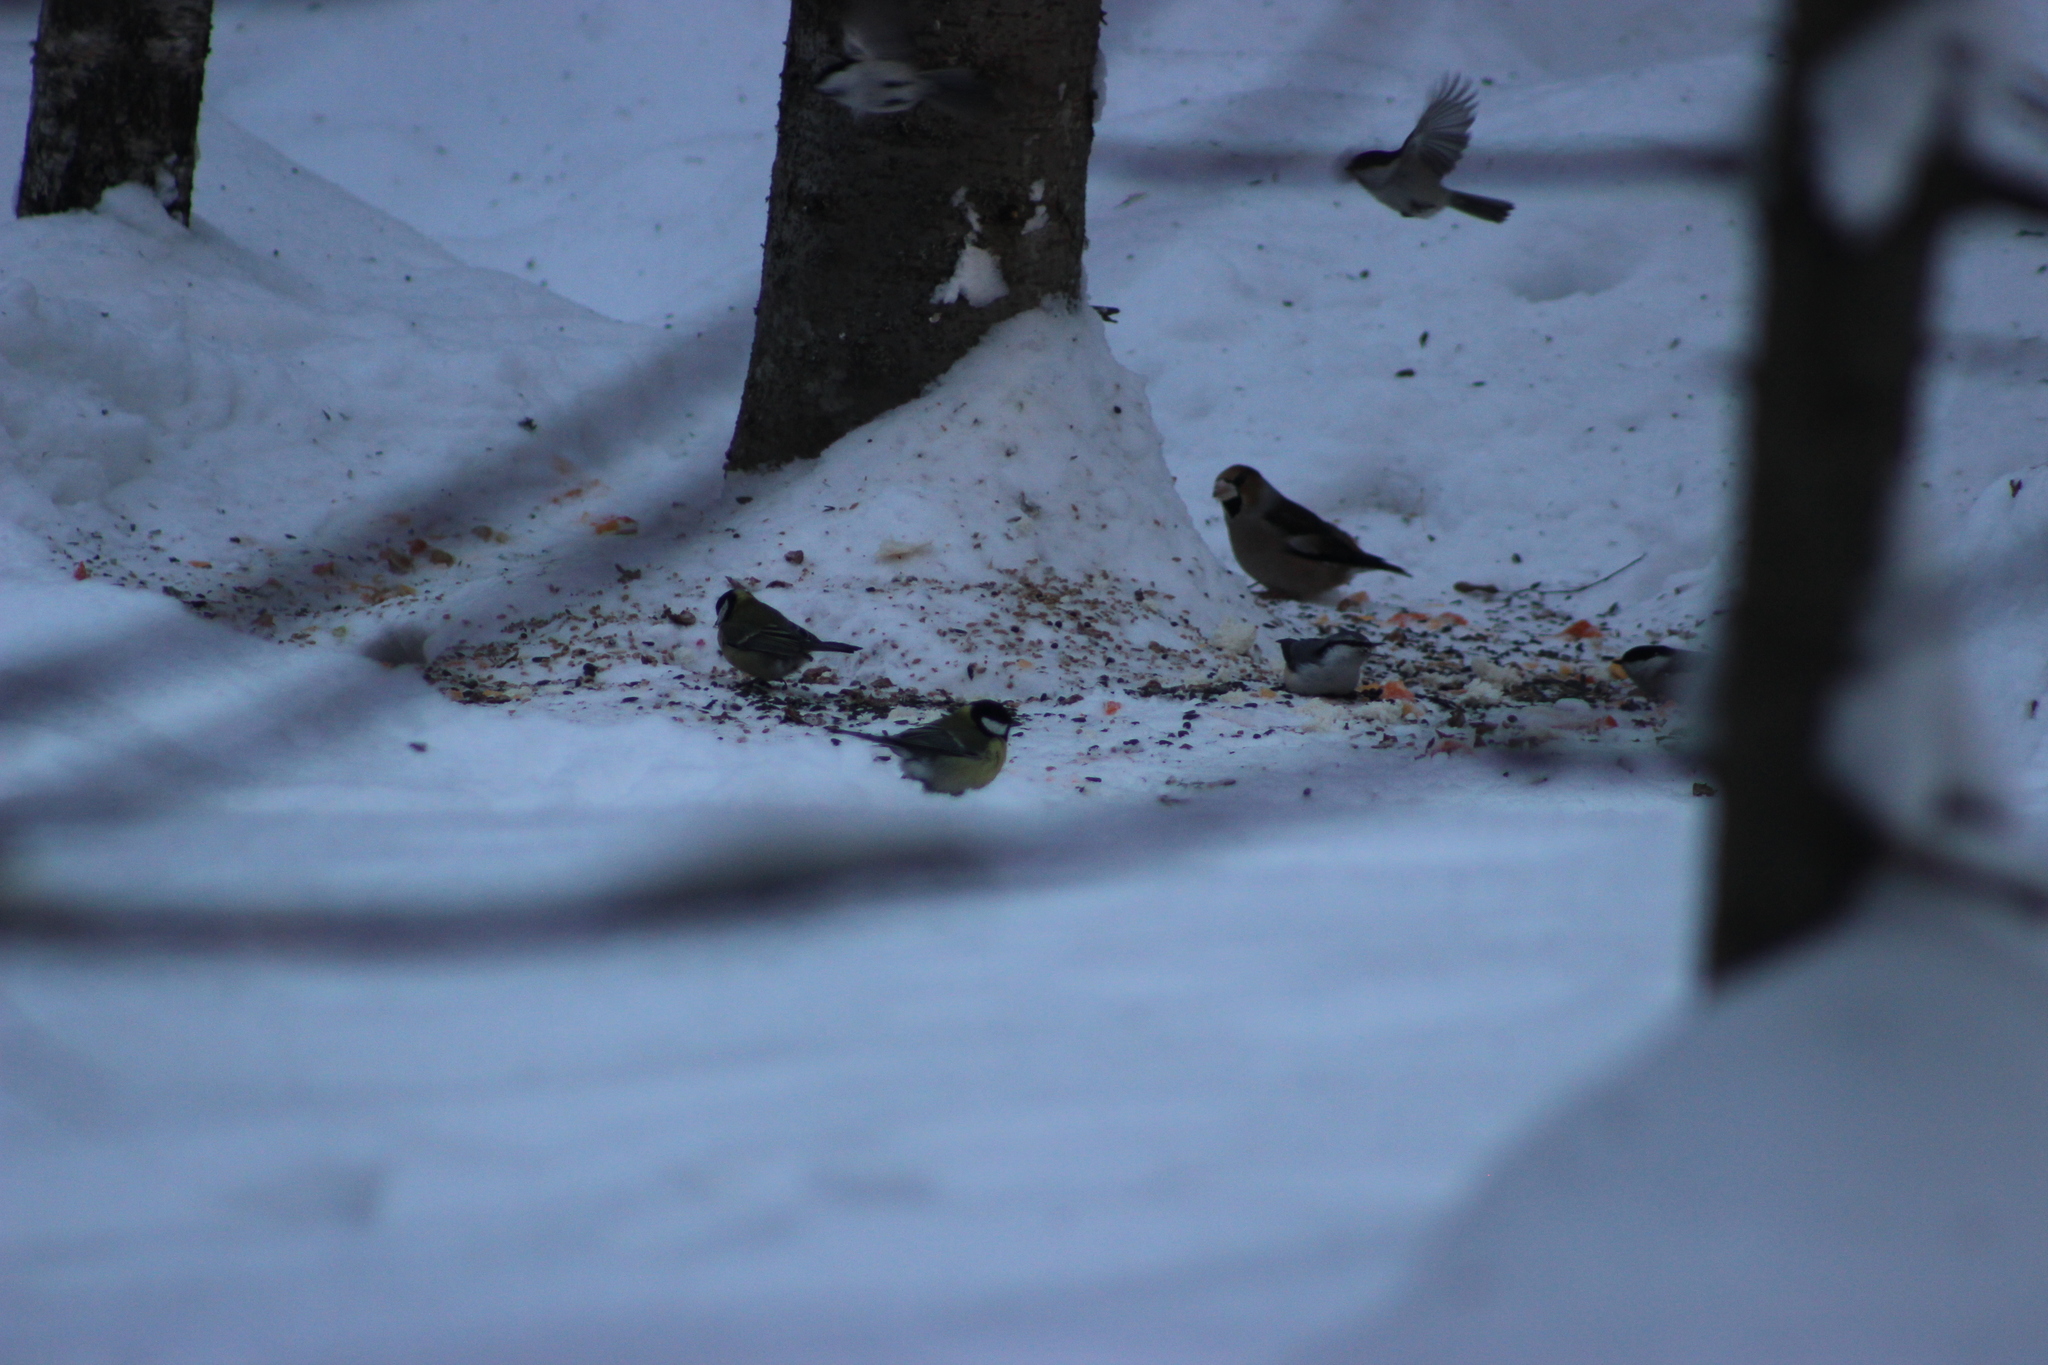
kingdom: Animalia
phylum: Chordata
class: Aves
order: Passeriformes
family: Fringillidae
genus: Coccothraustes
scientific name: Coccothraustes coccothraustes
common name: Hawfinch
